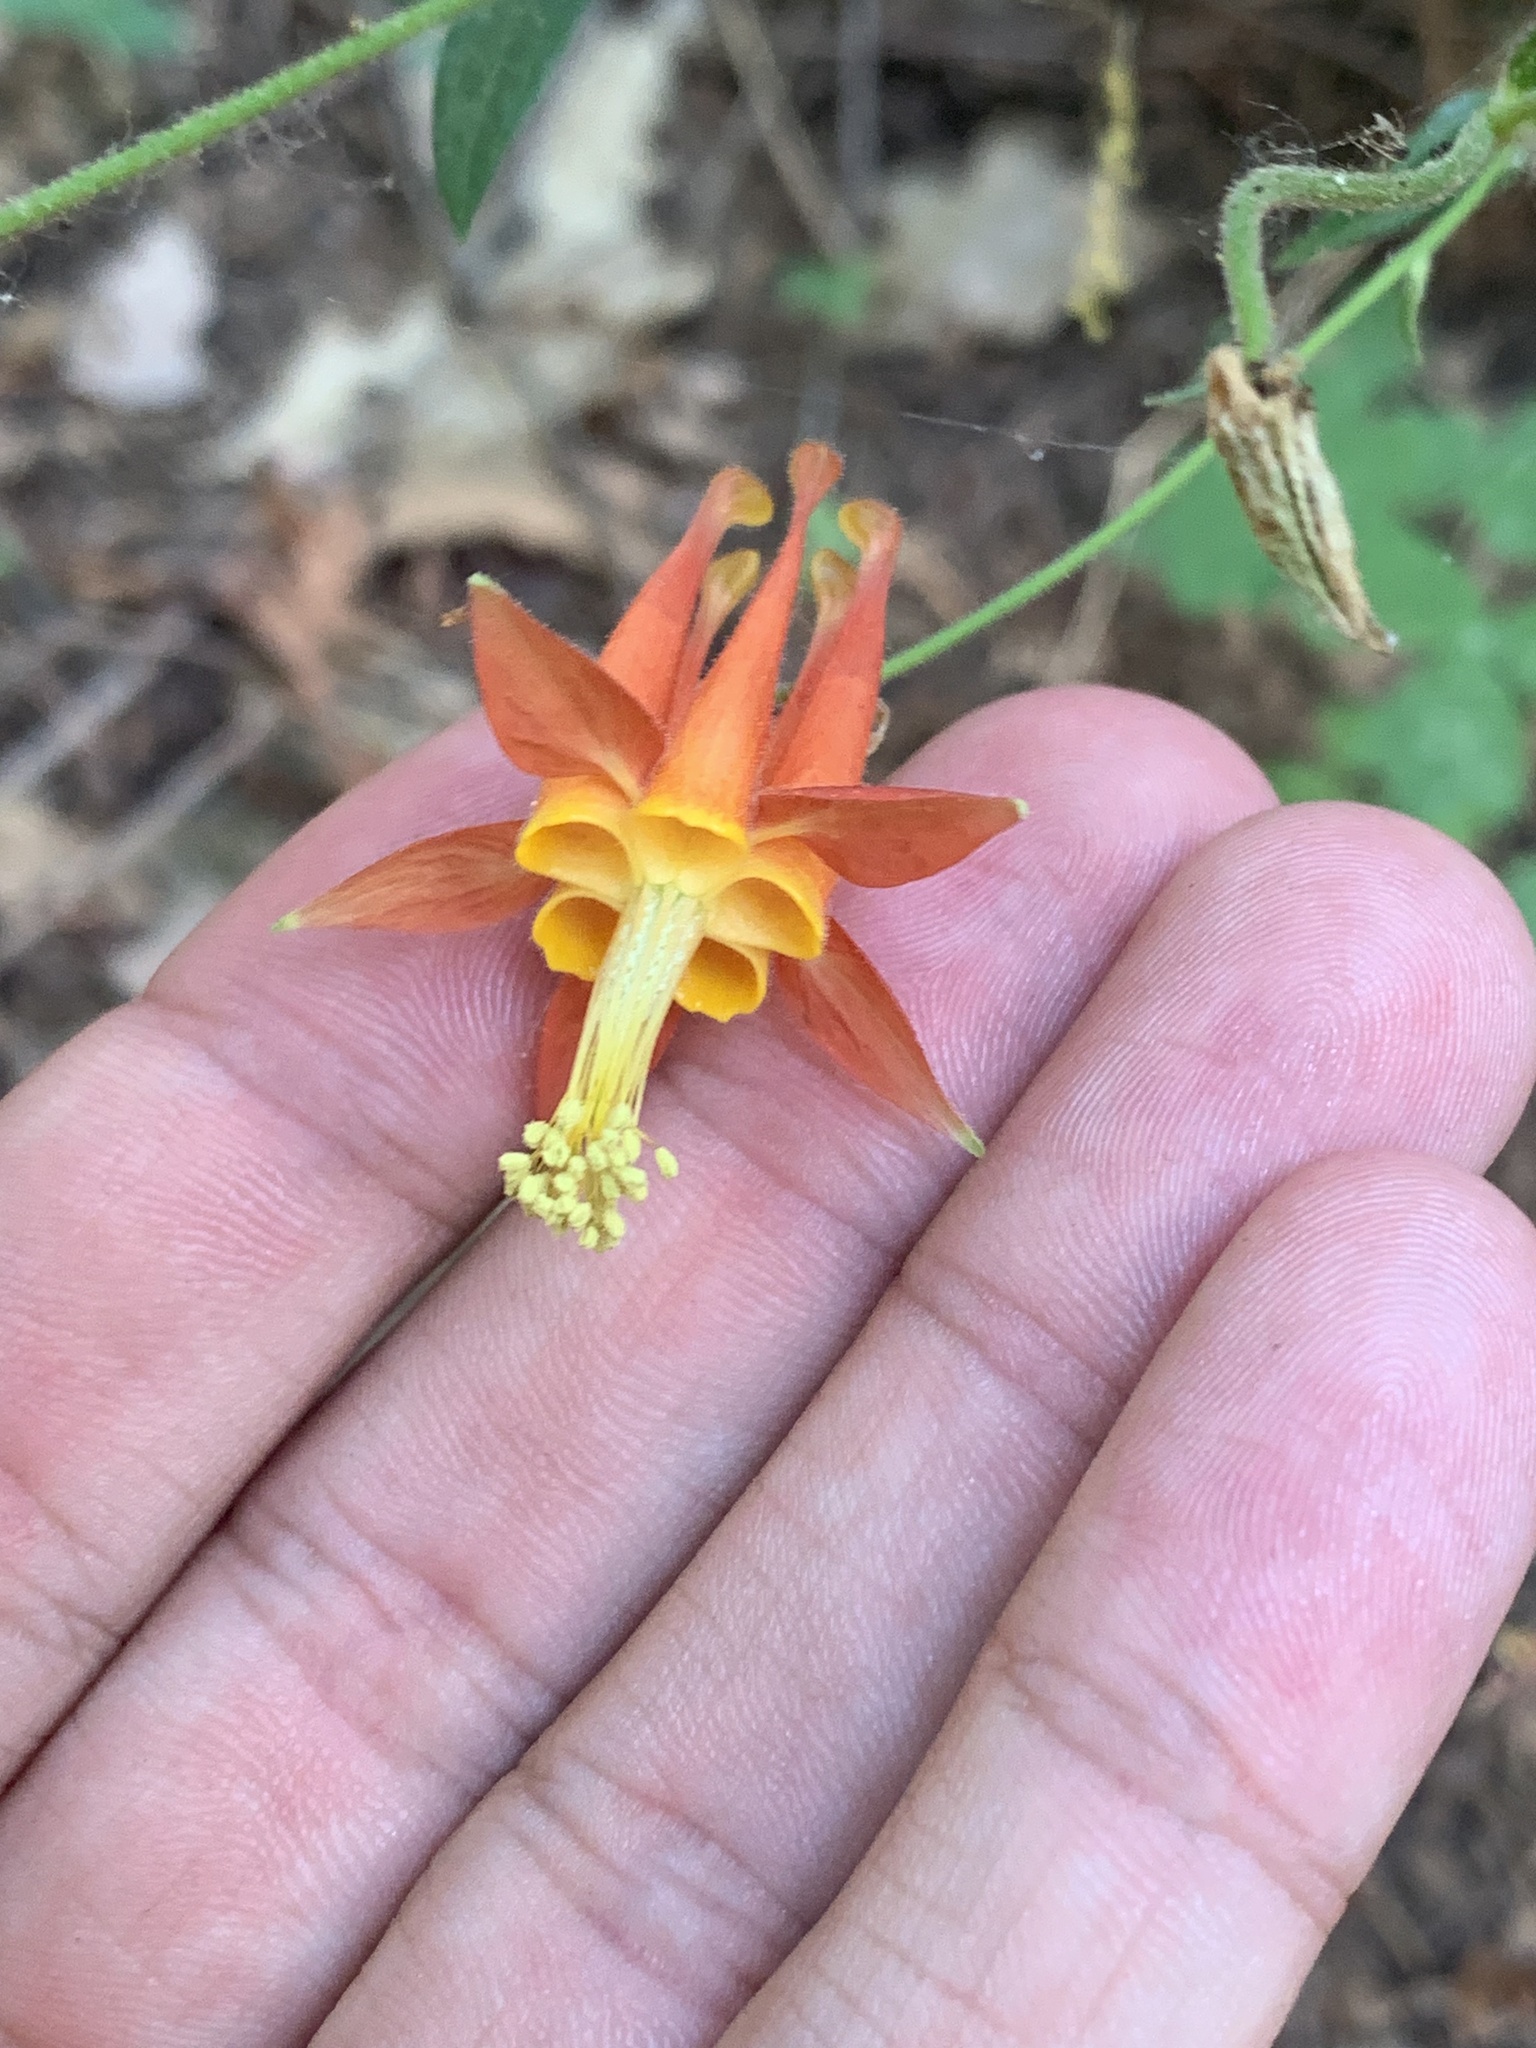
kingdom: Plantae
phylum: Tracheophyta
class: Magnoliopsida
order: Ranunculales
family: Ranunculaceae
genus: Aquilegia
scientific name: Aquilegia formosa
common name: Sitka columbine
